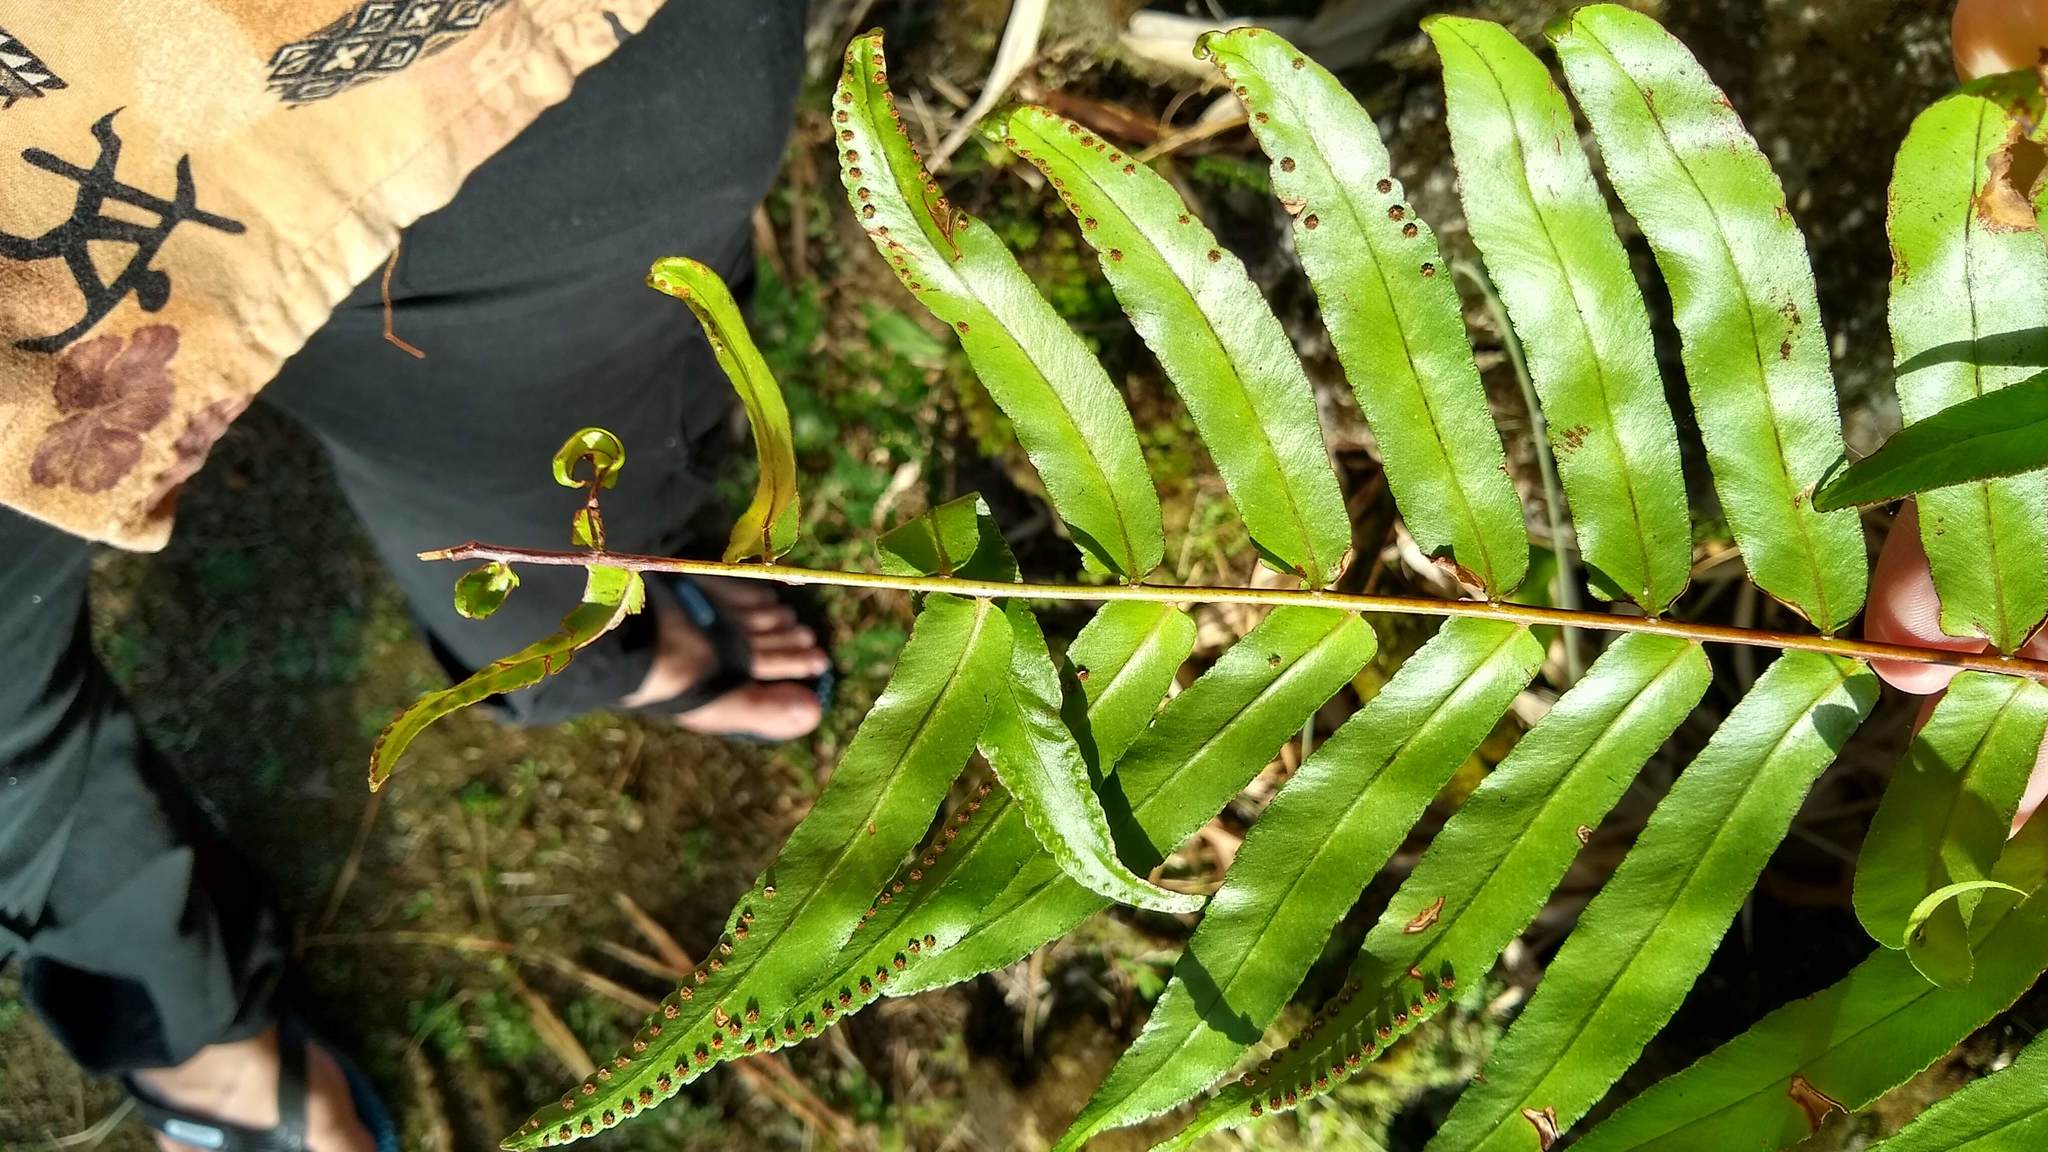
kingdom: Plantae
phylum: Tracheophyta
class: Polypodiopsida
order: Polypodiales
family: Nephrolepidaceae
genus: Nephrolepis
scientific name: Nephrolepis biserrata
